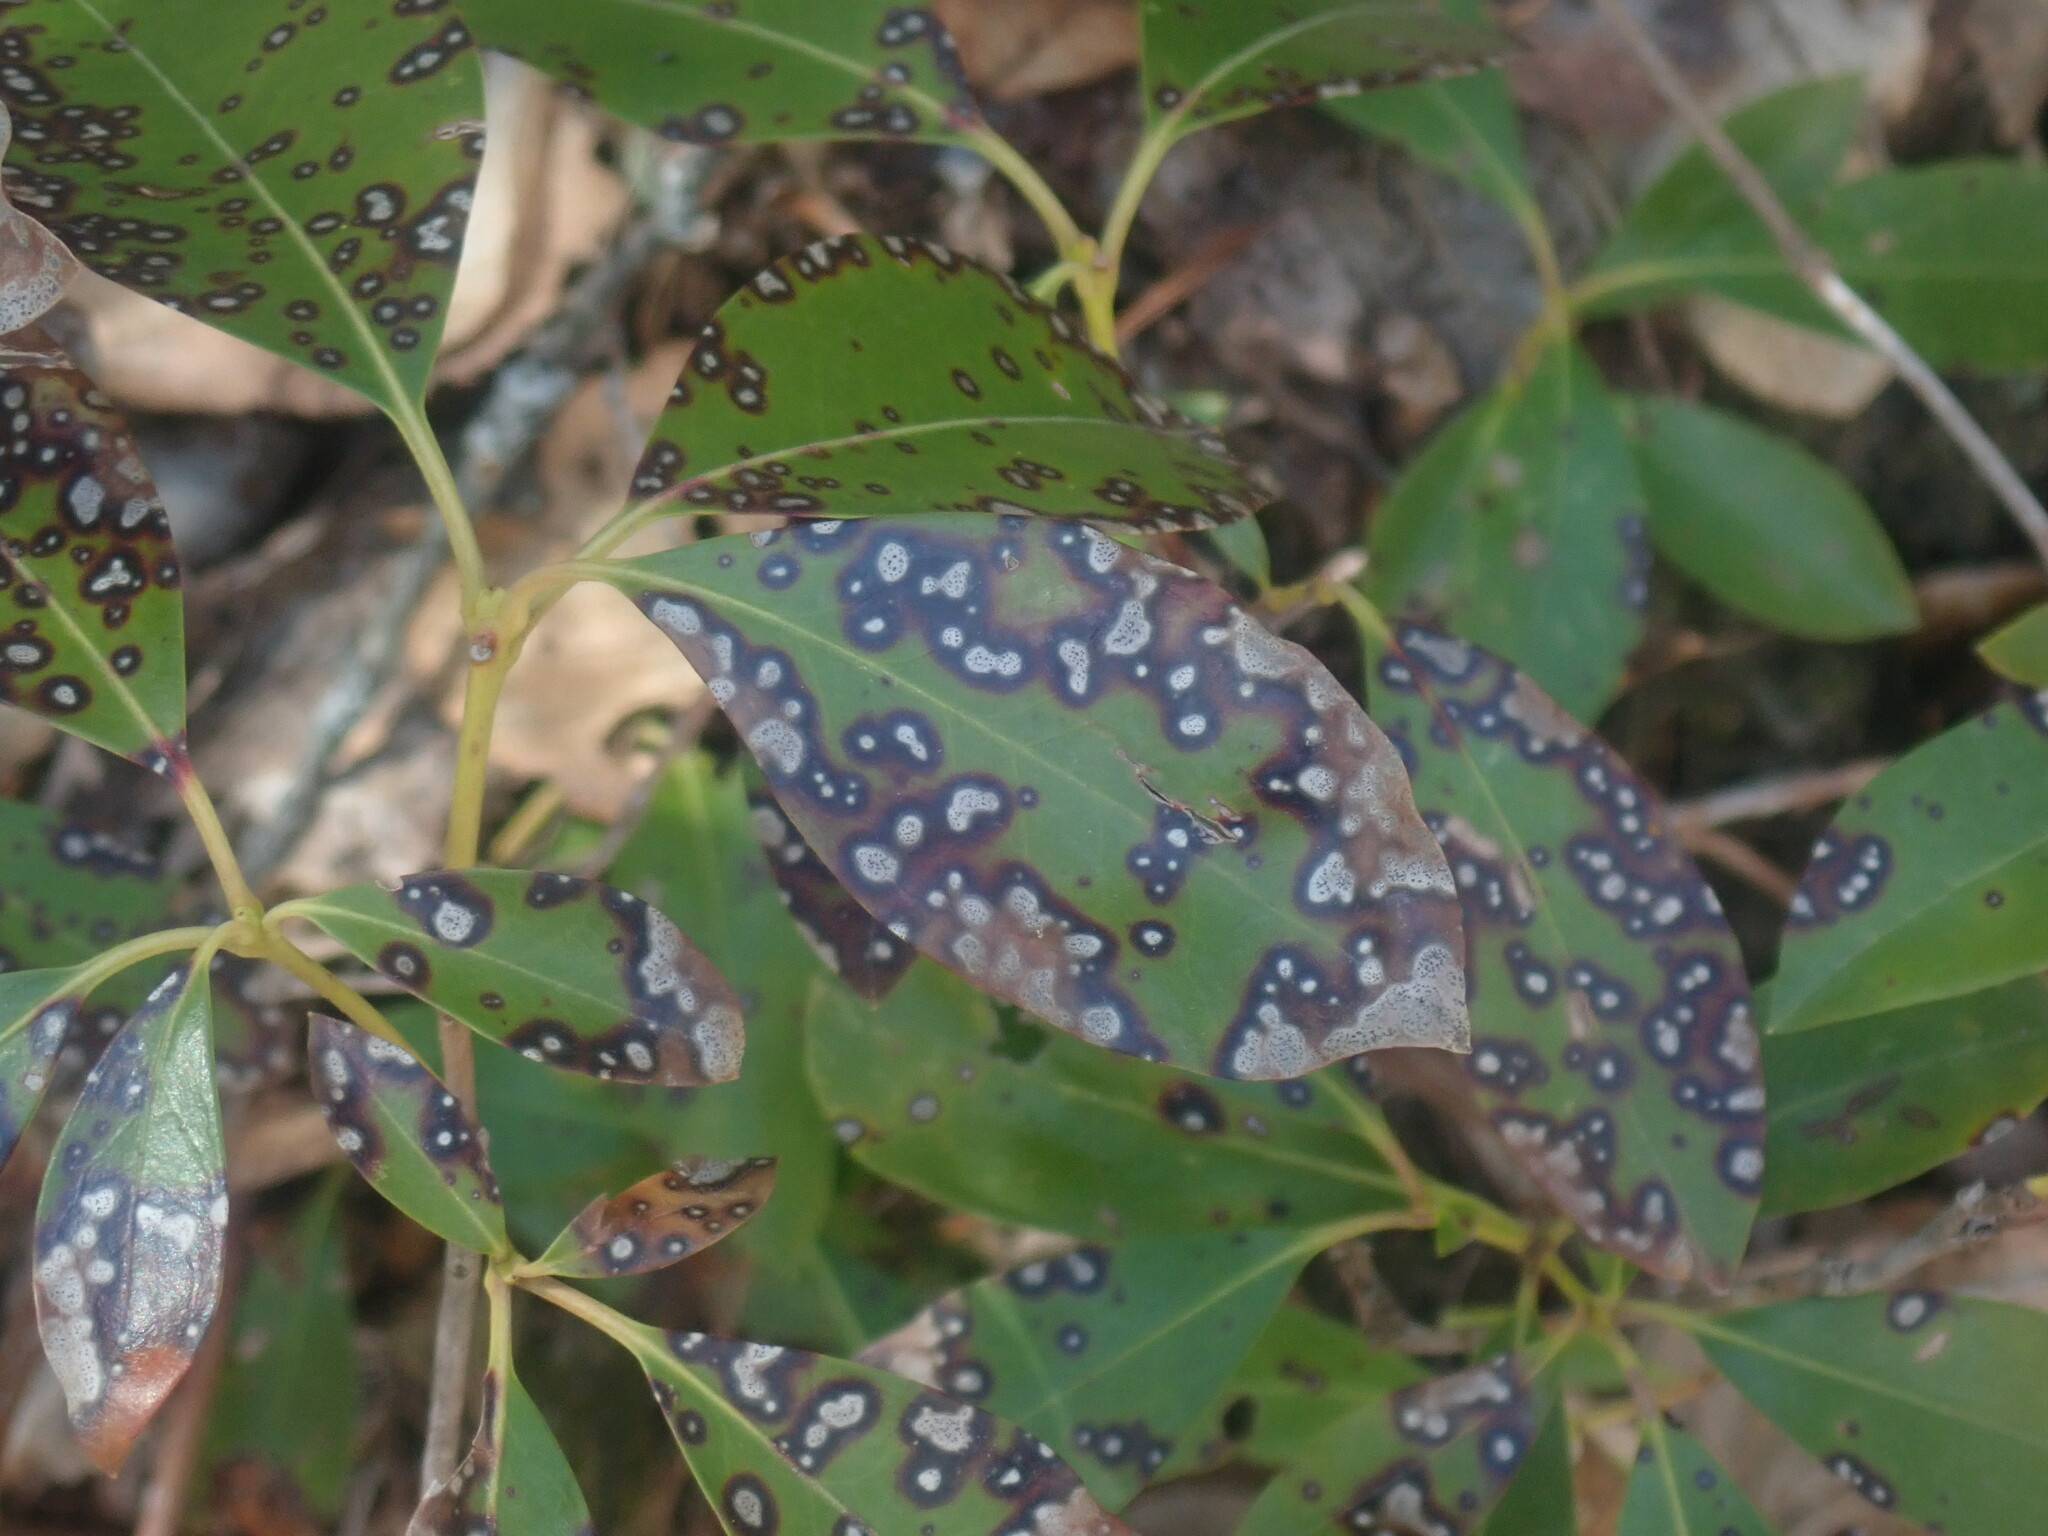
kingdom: Fungi
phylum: Ascomycota
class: Dothideomycetes
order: Mycosphaerellales
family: Mycosphaerellaceae
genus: Mycosphaerella
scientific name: Mycosphaerella colorata
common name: Mountain laurel leaf spot
